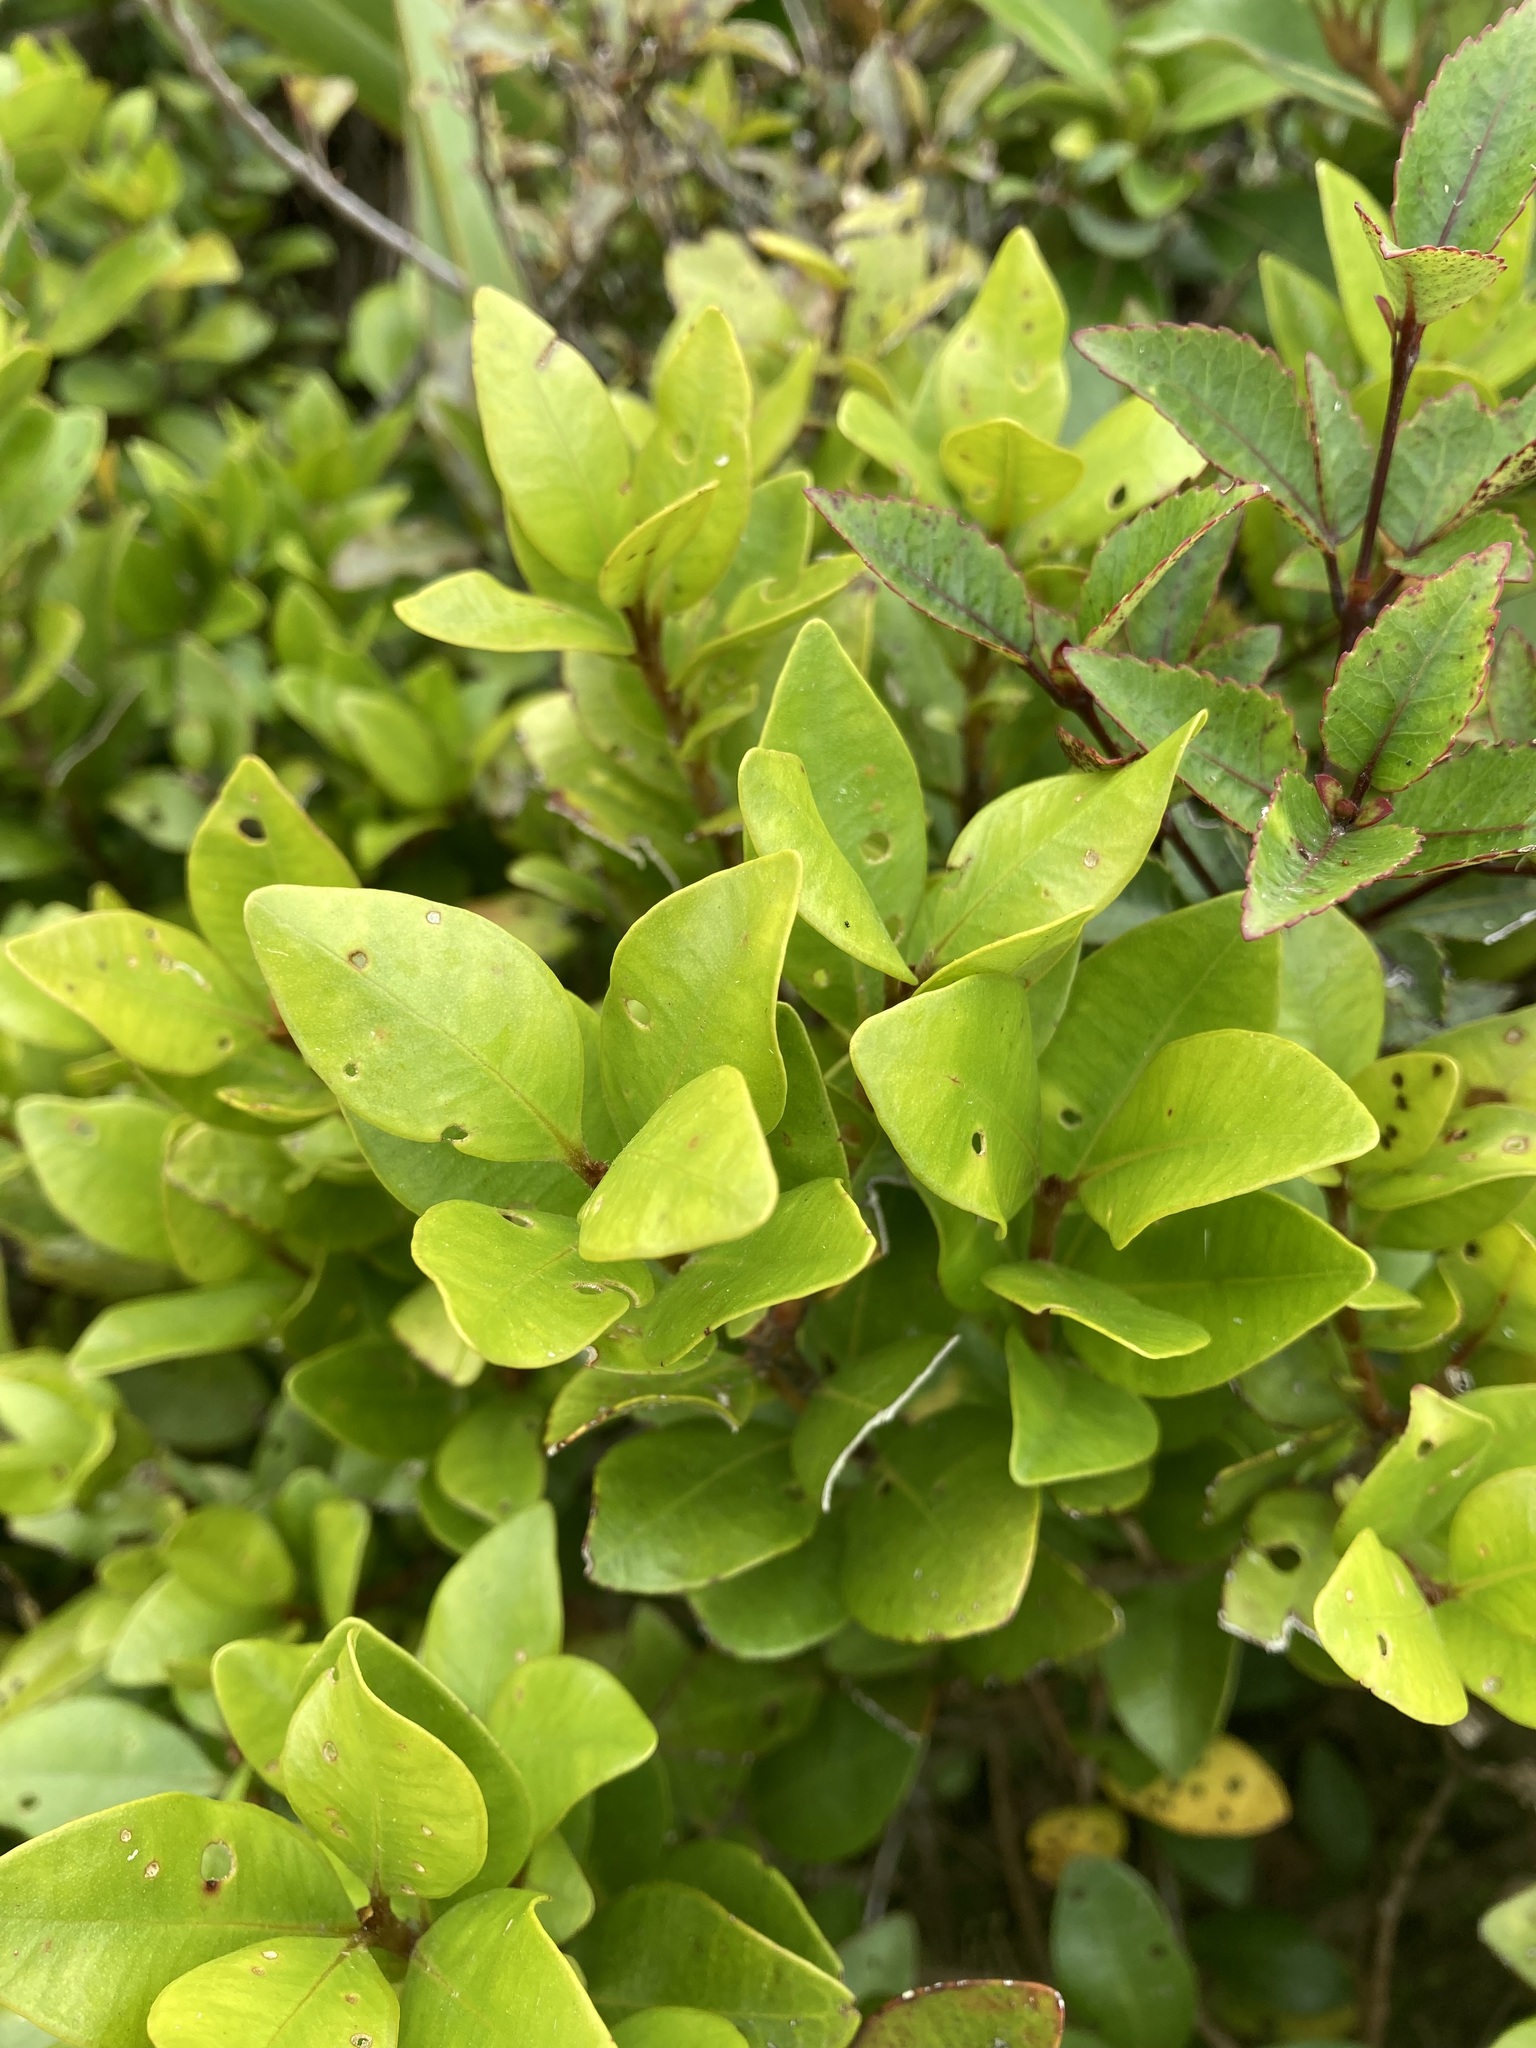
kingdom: Plantae
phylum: Tracheophyta
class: Magnoliopsida
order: Myrtales
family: Myrtaceae
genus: Metrosideros
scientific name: Metrosideros fulgens
